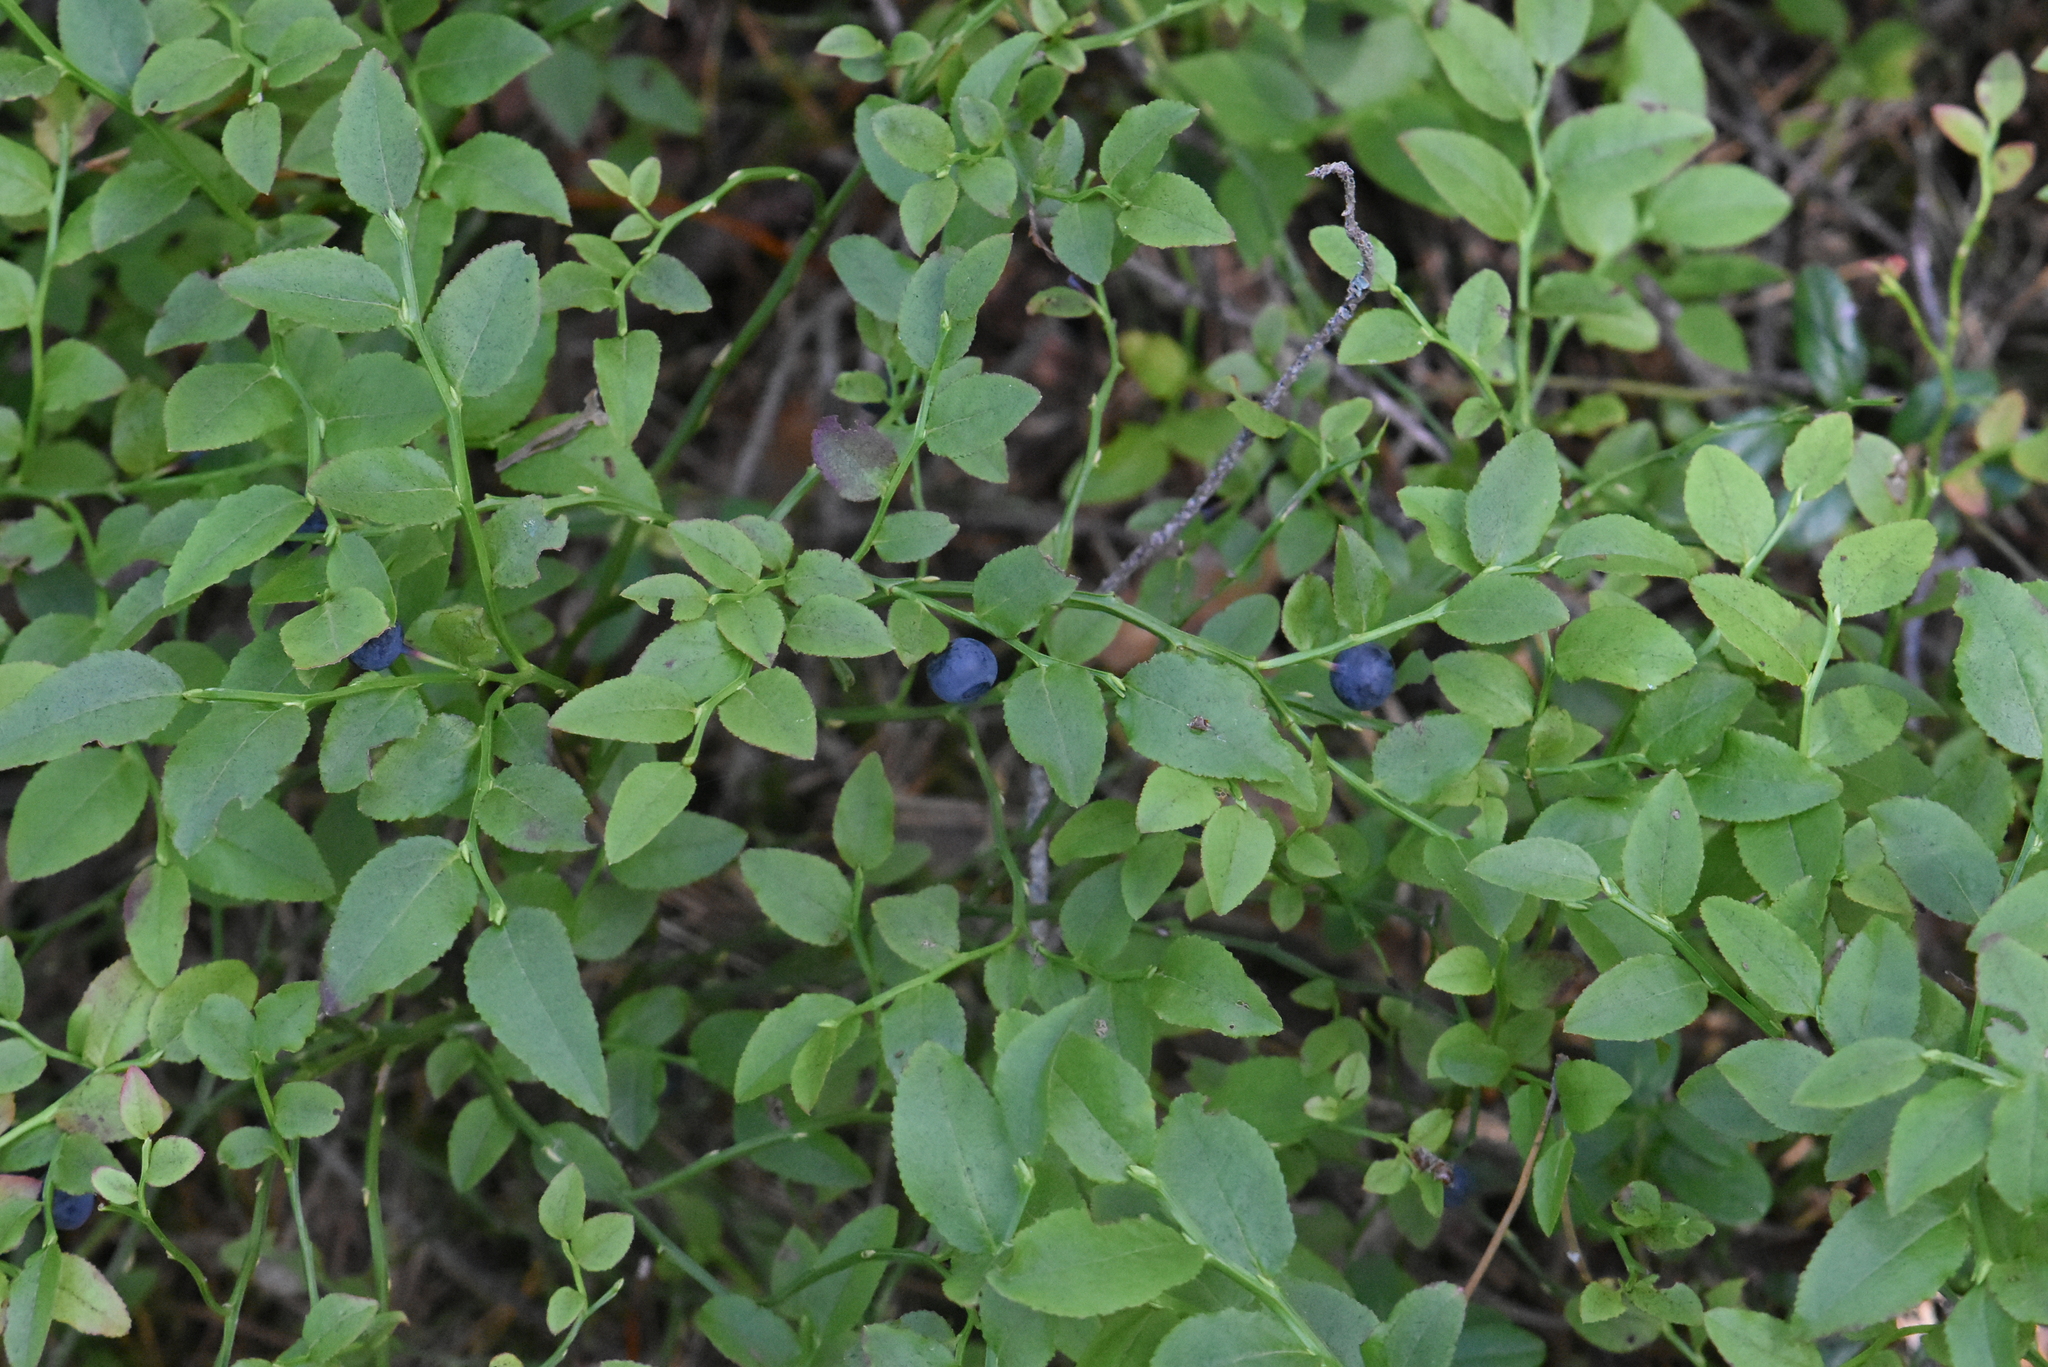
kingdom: Plantae
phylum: Tracheophyta
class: Magnoliopsida
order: Ericales
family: Ericaceae
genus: Vaccinium
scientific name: Vaccinium myrtillus
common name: Bilberry
